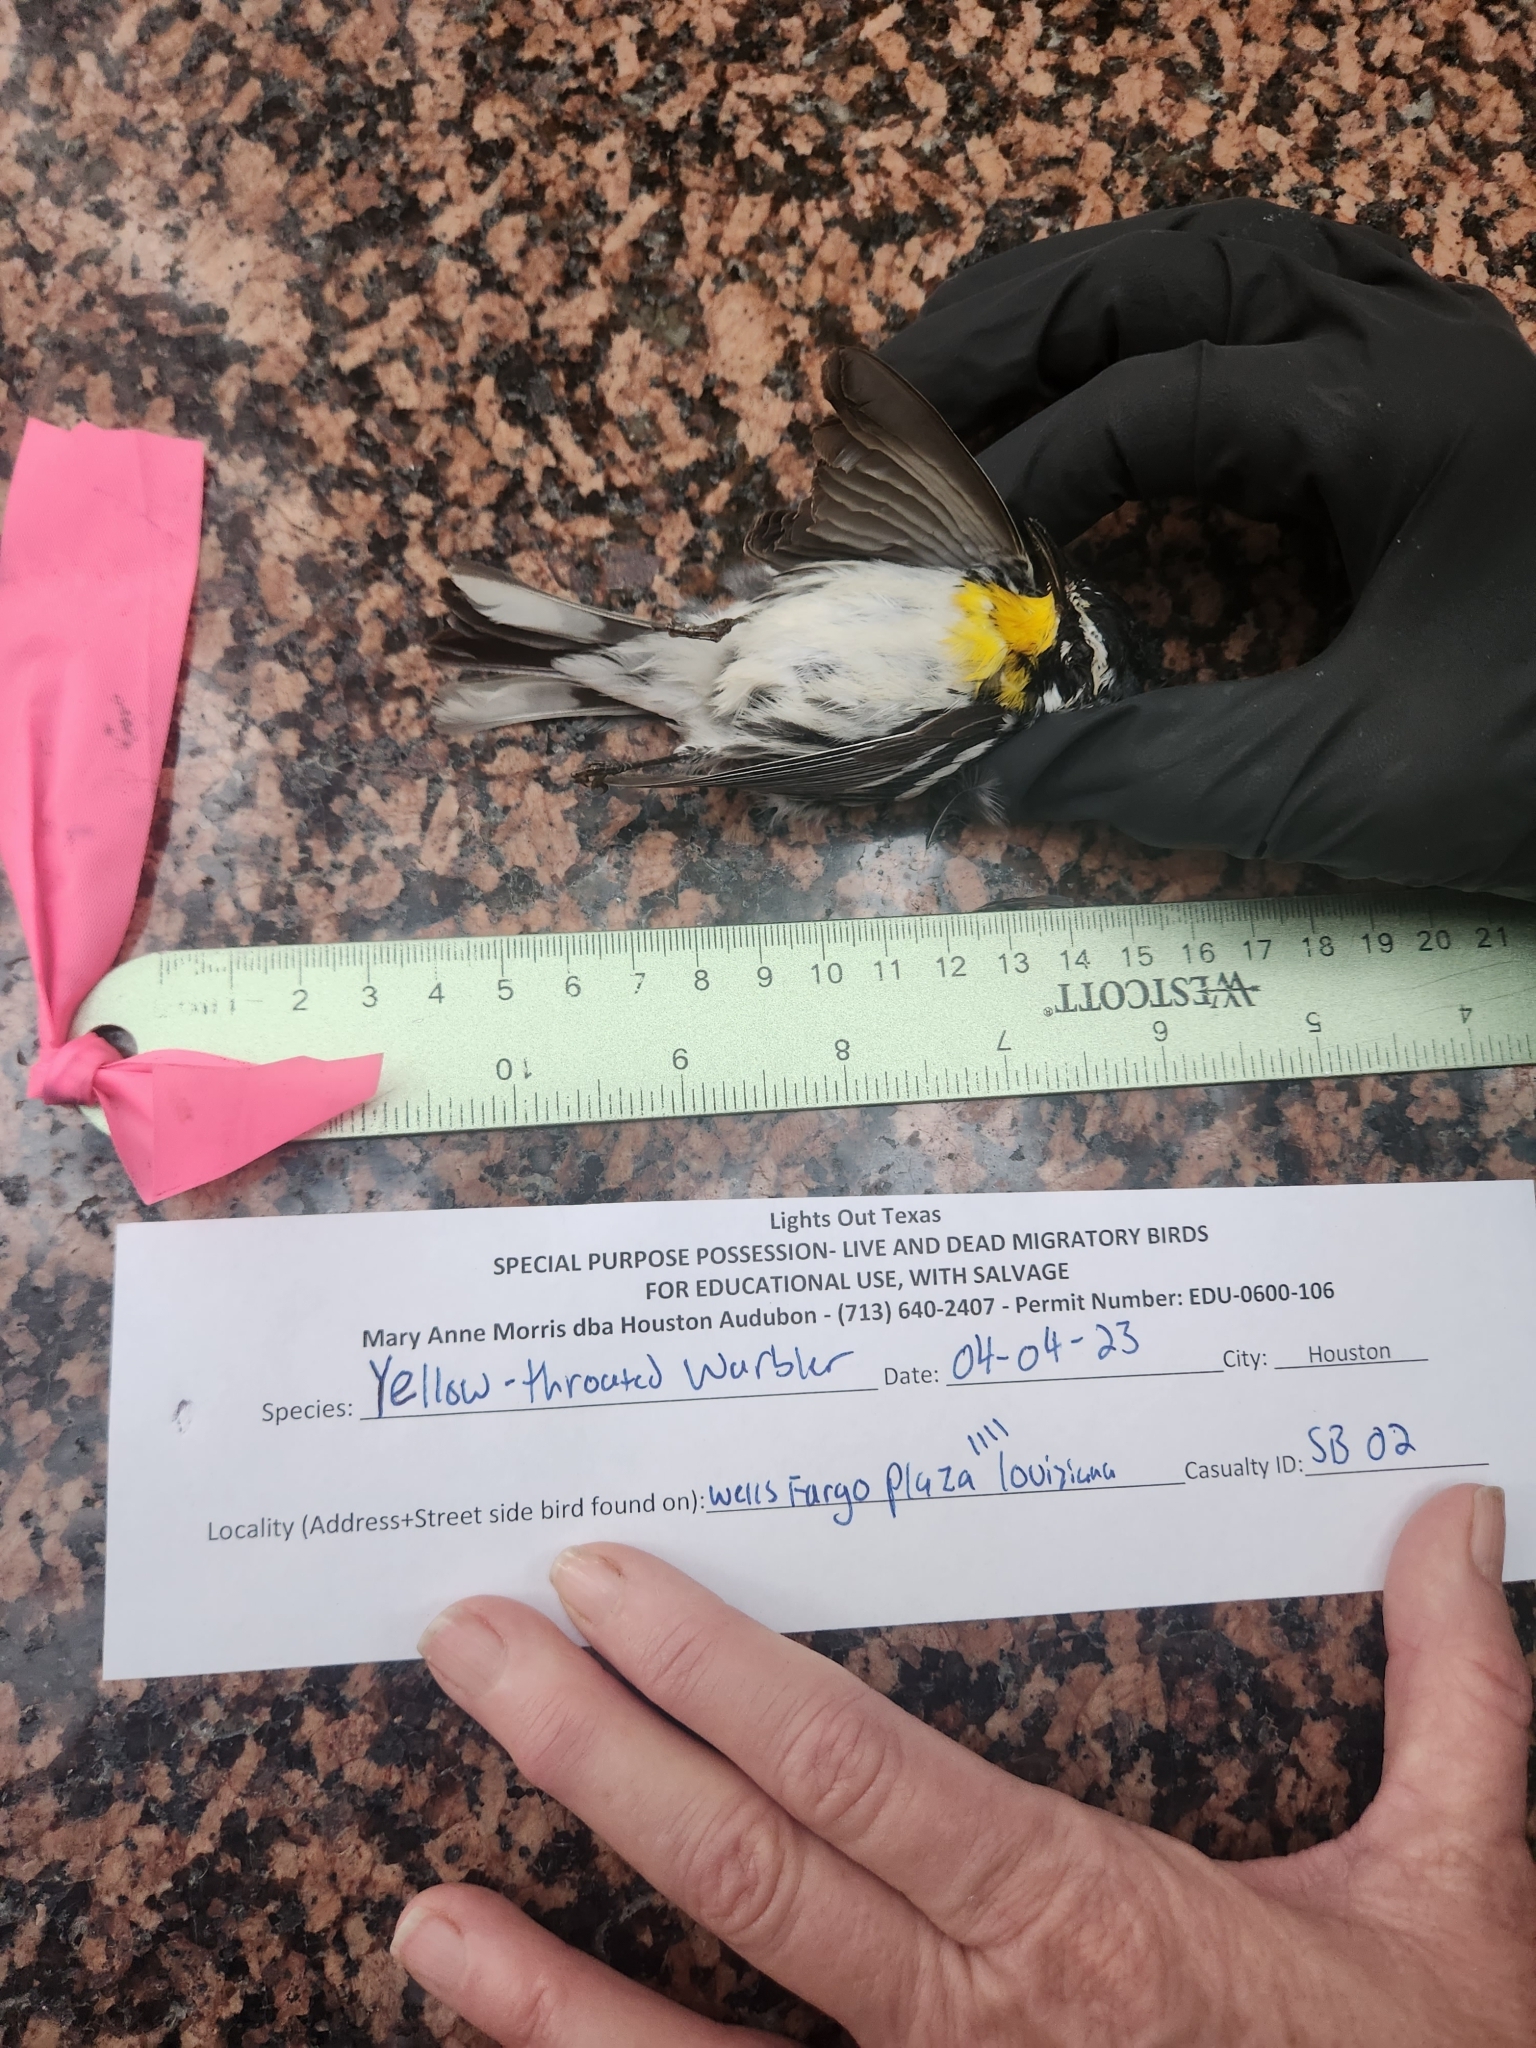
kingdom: Animalia
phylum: Chordata
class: Aves
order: Passeriformes
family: Parulidae
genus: Setophaga
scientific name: Setophaga dominica
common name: Yellow-throated warbler
